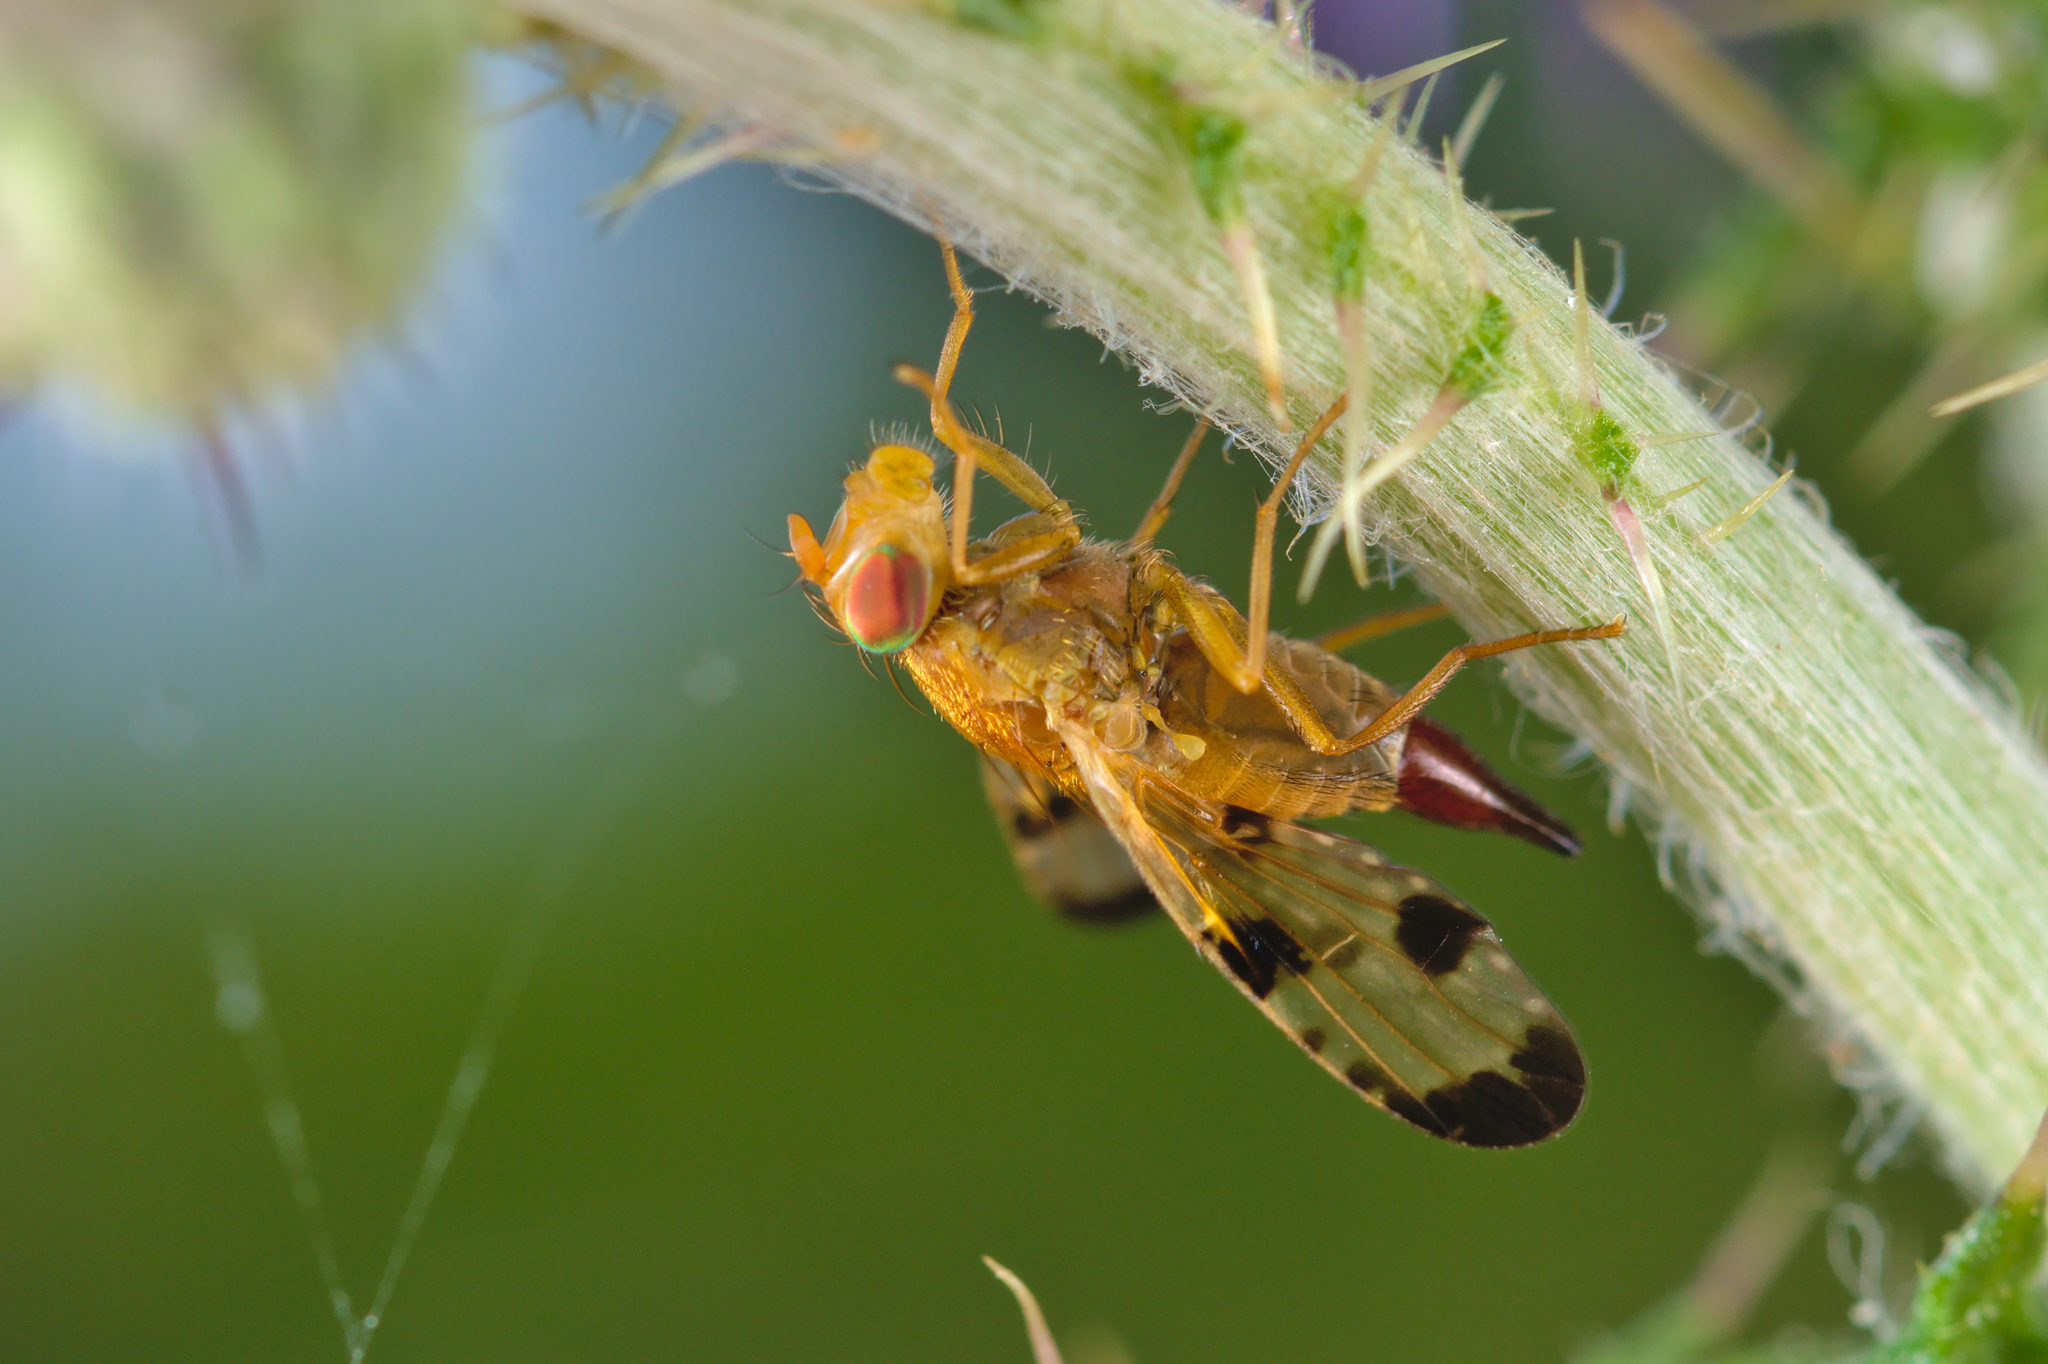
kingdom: Animalia
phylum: Arthropoda
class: Insecta
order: Diptera
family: Tephritidae
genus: Xyphosia
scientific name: Xyphosia miliaria
